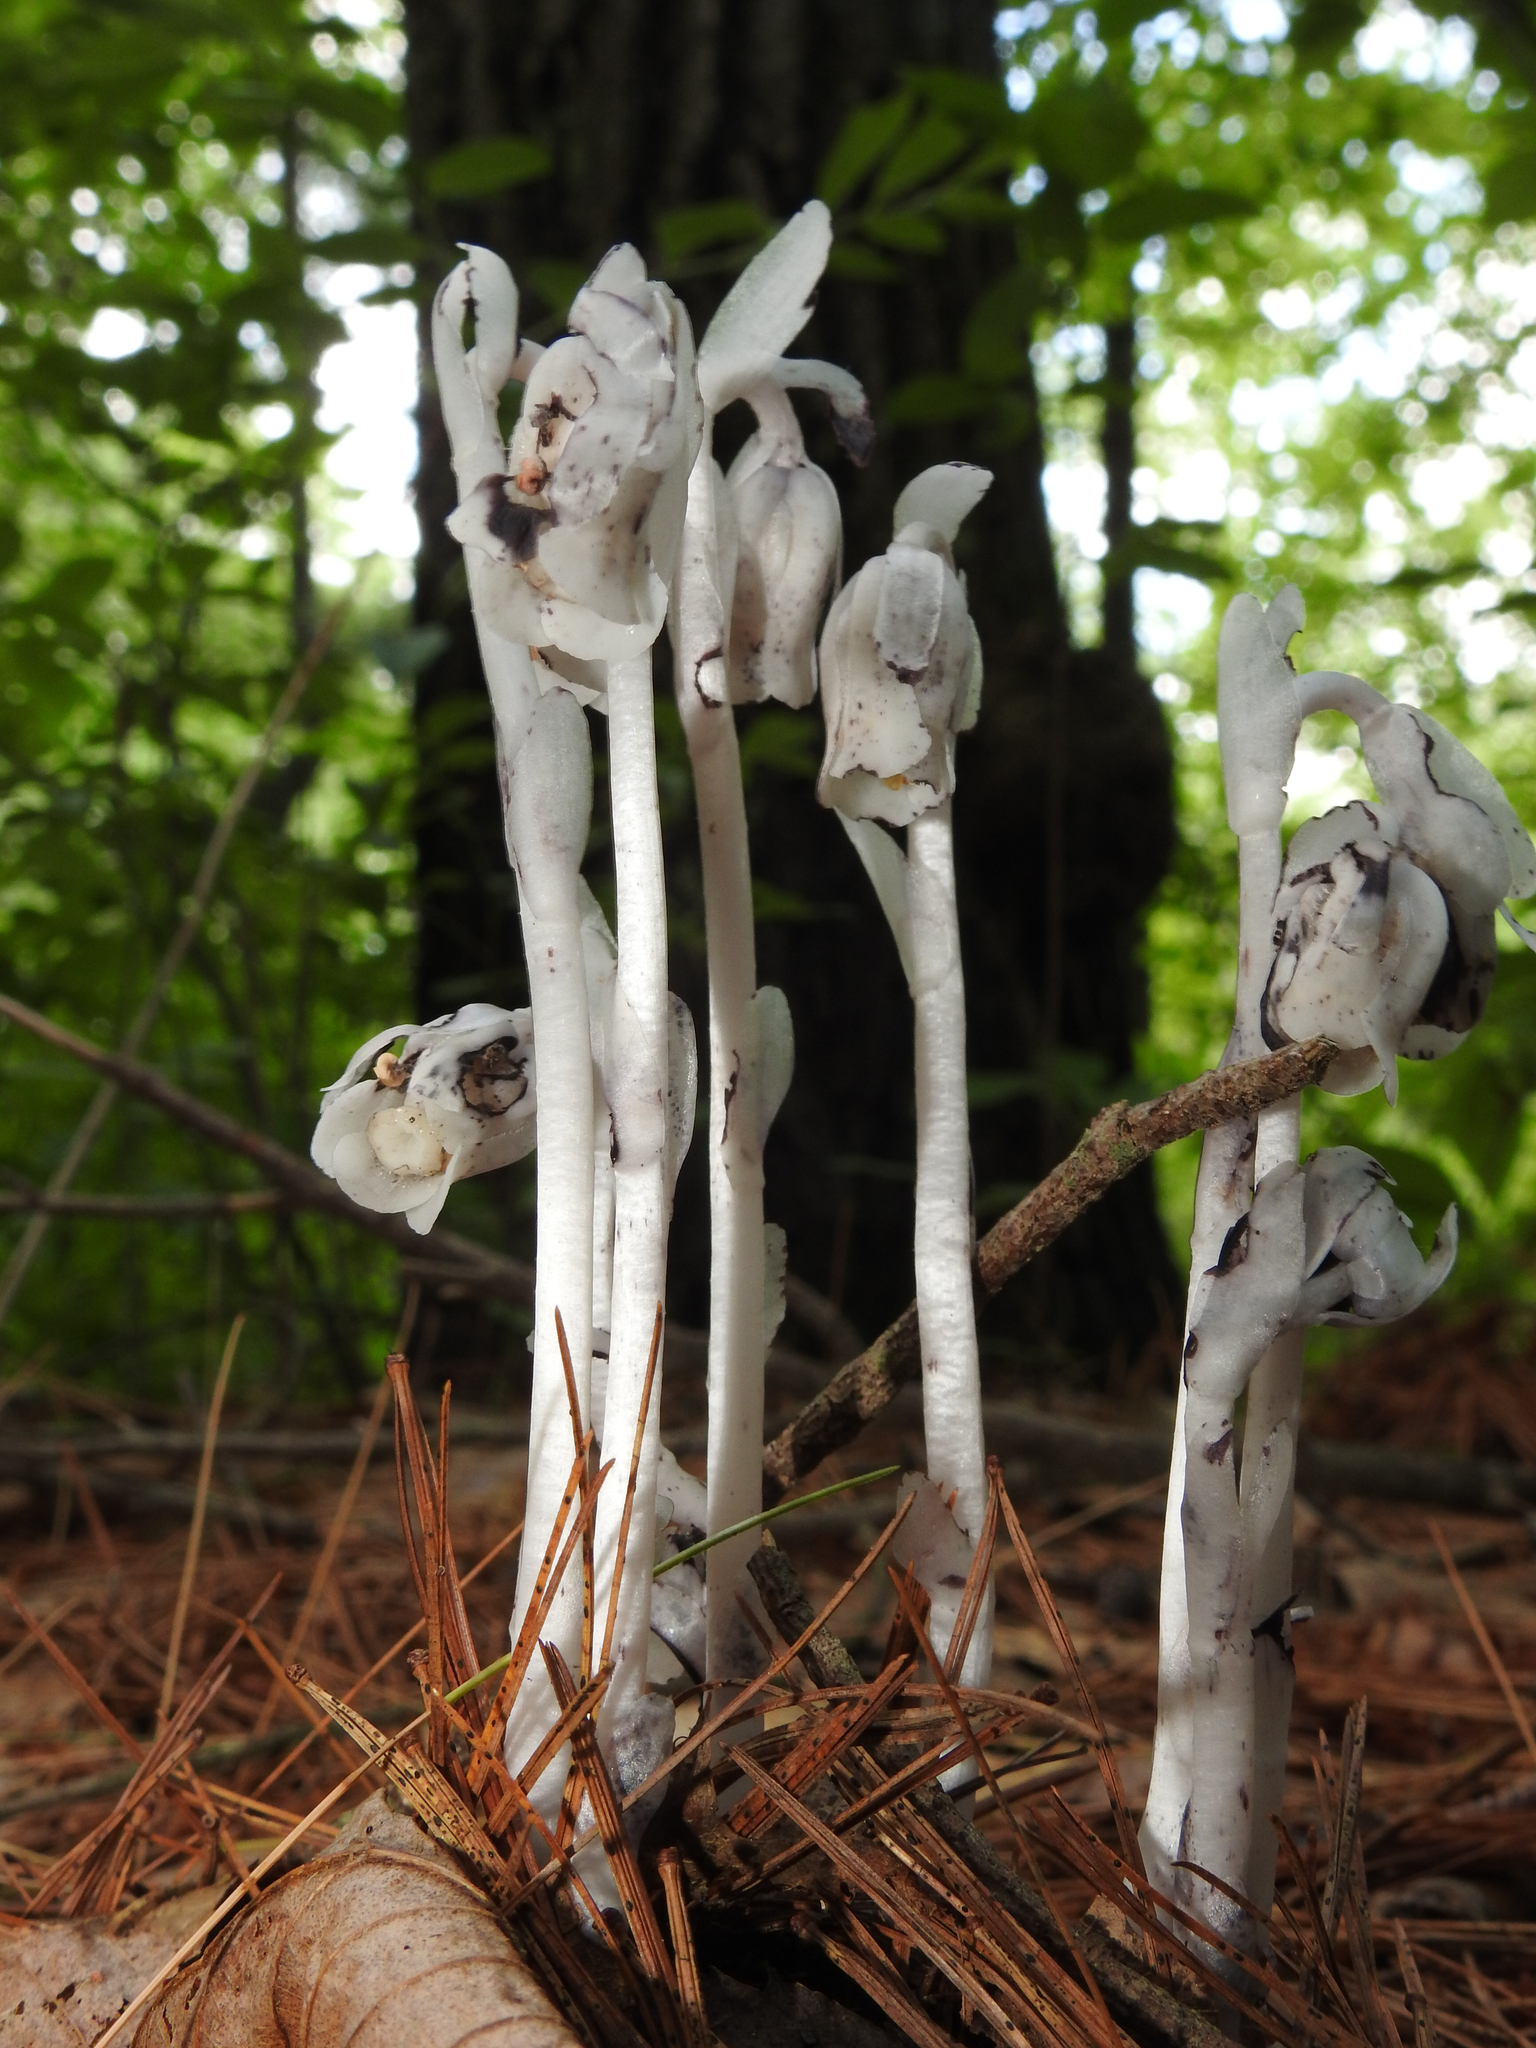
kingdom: Plantae
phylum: Tracheophyta
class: Magnoliopsida
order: Ericales
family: Ericaceae
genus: Monotropa
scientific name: Monotropa uniflora
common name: Convulsion root
